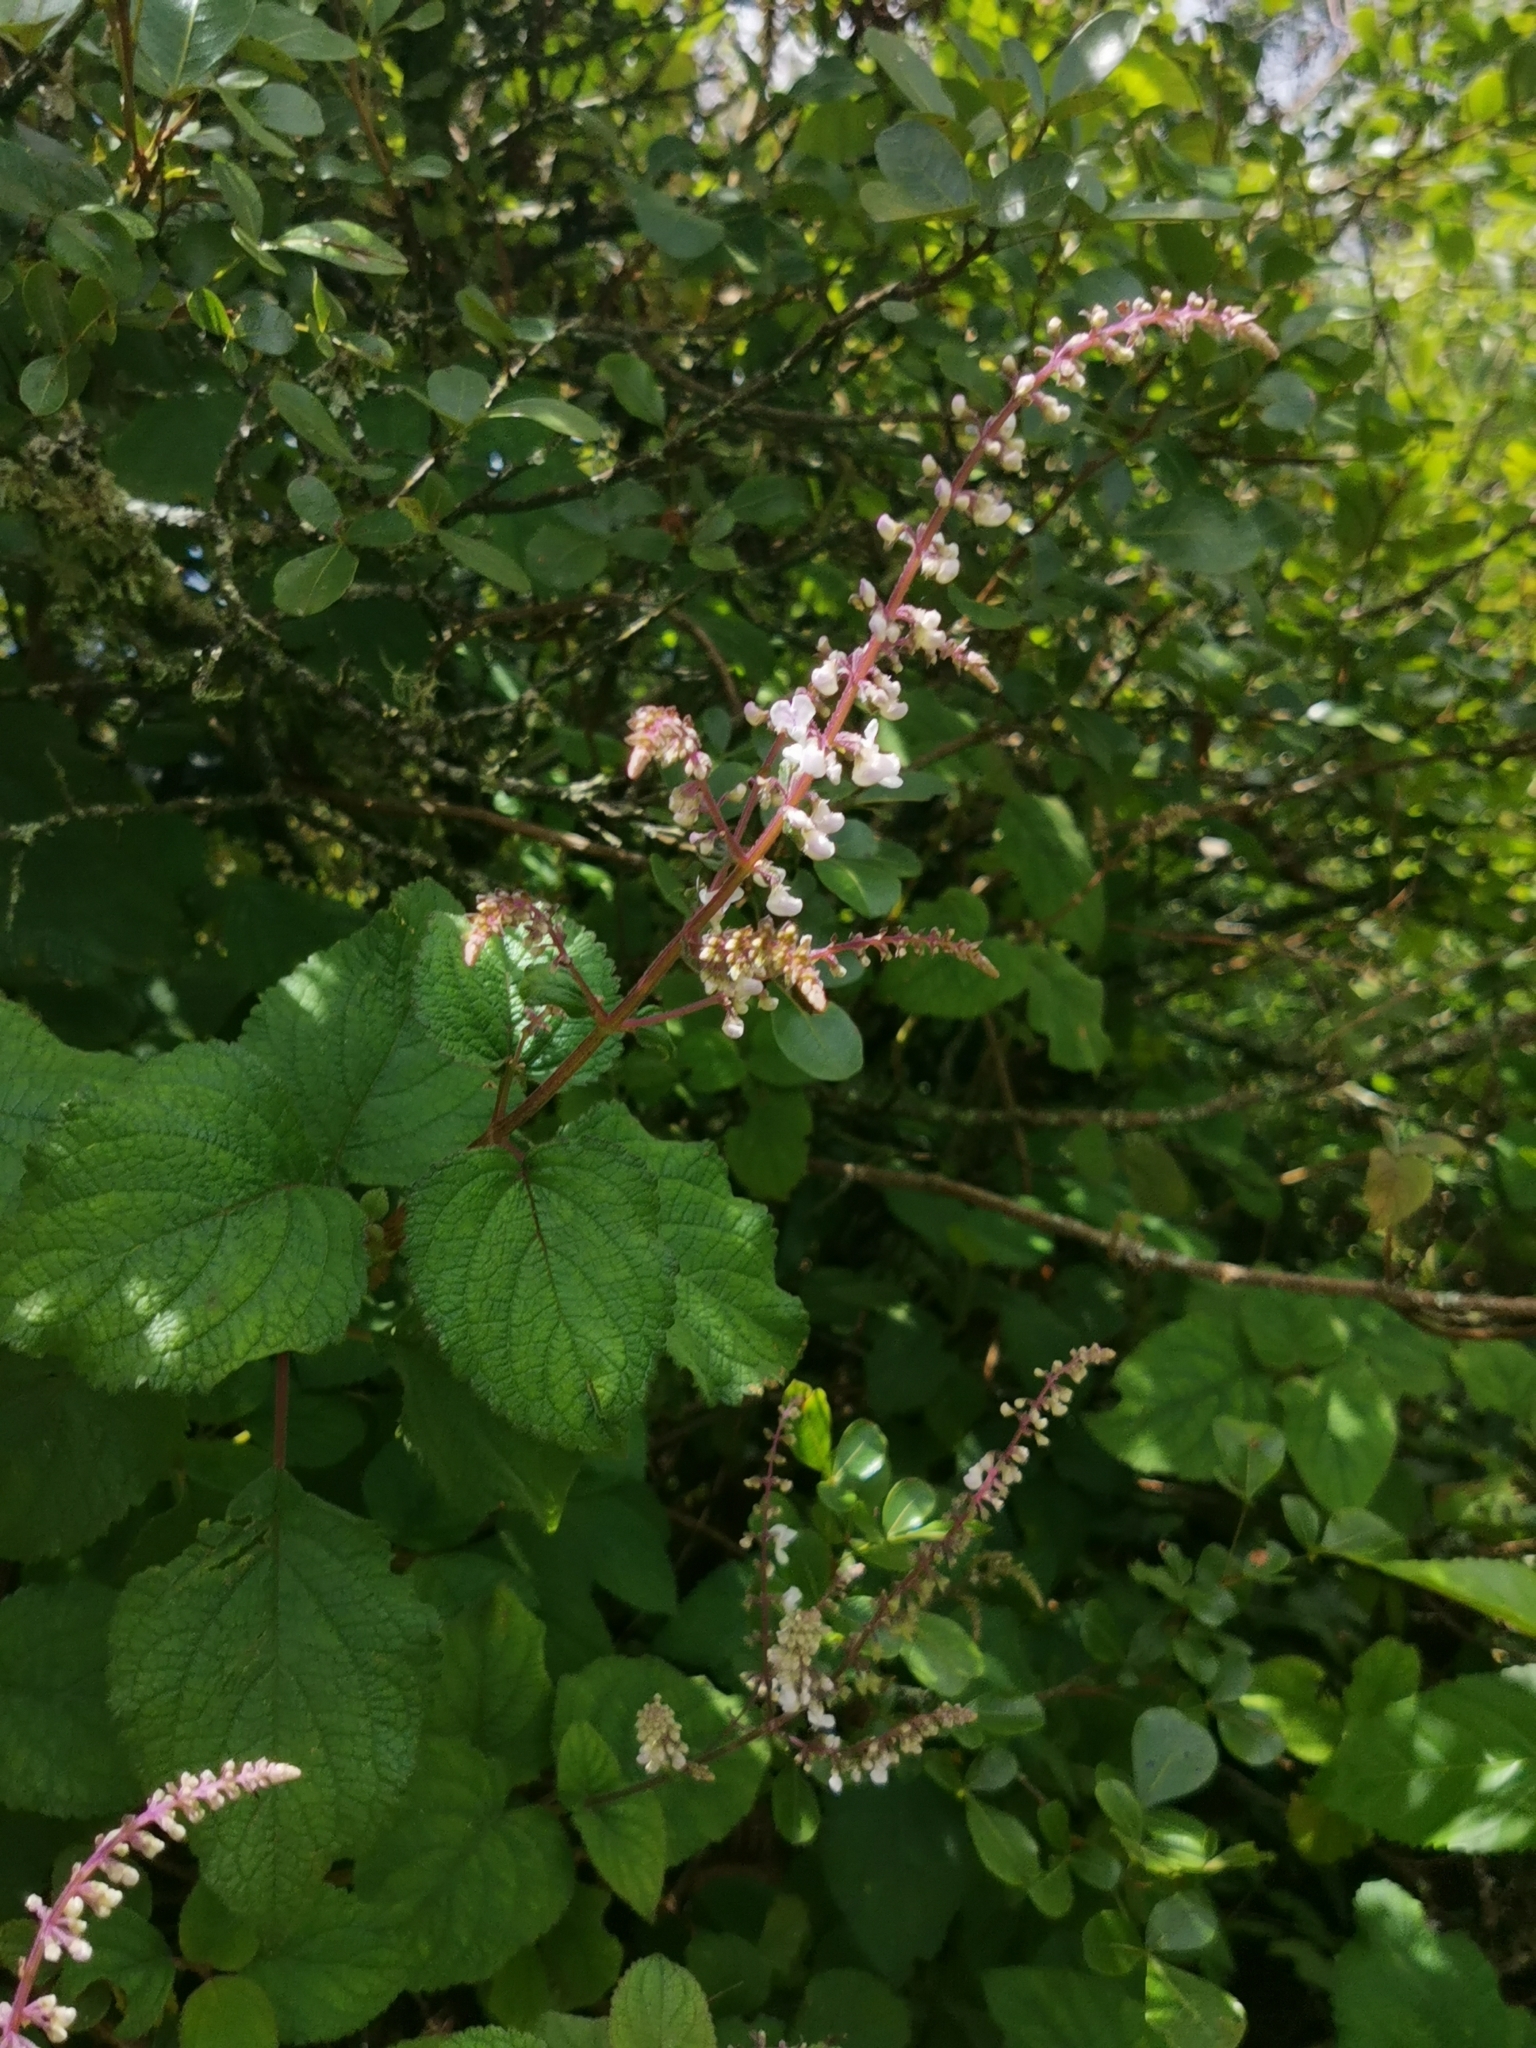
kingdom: Plantae
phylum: Tracheophyta
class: Magnoliopsida
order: Lamiales
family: Lamiaceae
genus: Plectranthus
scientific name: Plectranthus fruticosus
